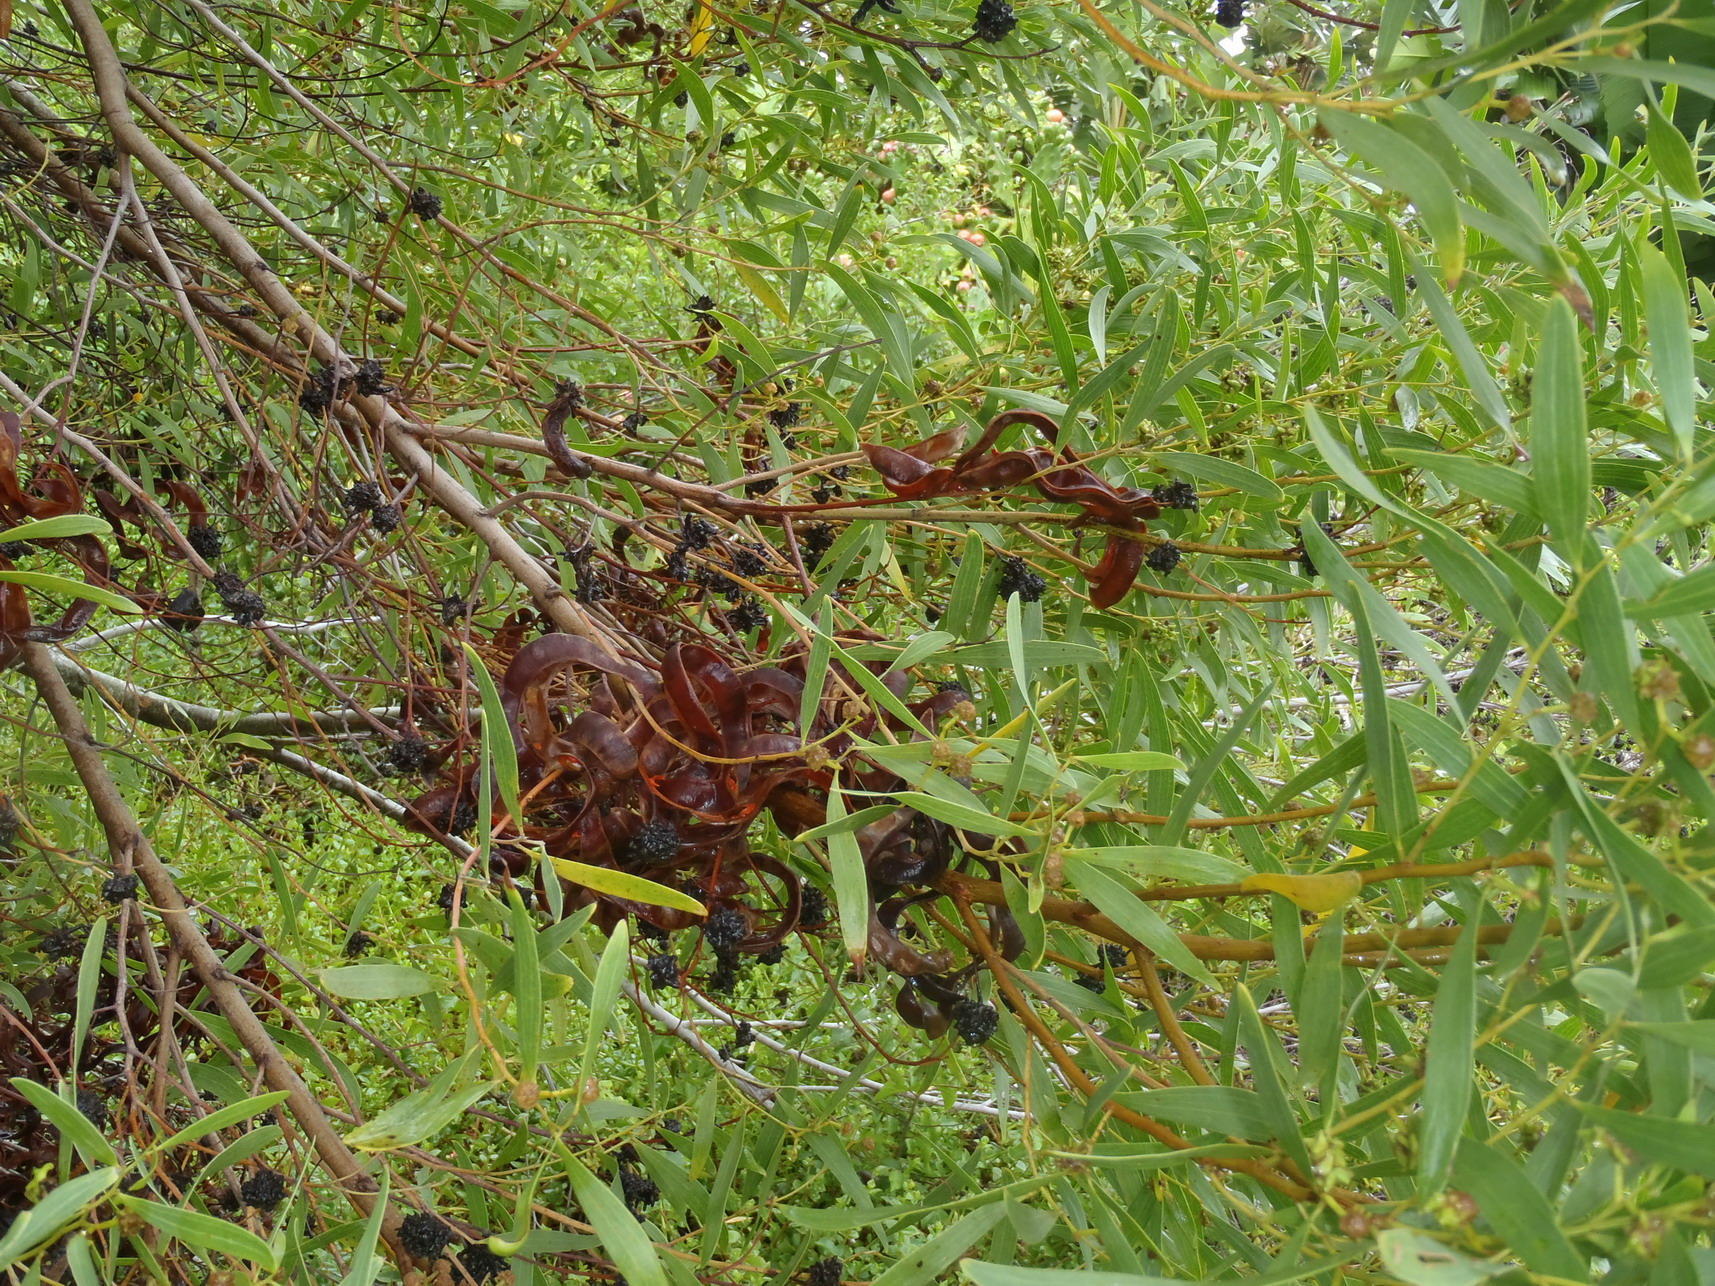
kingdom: Plantae
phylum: Tracheophyta
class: Magnoliopsida
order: Fabales
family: Fabaceae
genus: Acacia
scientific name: Acacia cyclops
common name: Coastal wattle
